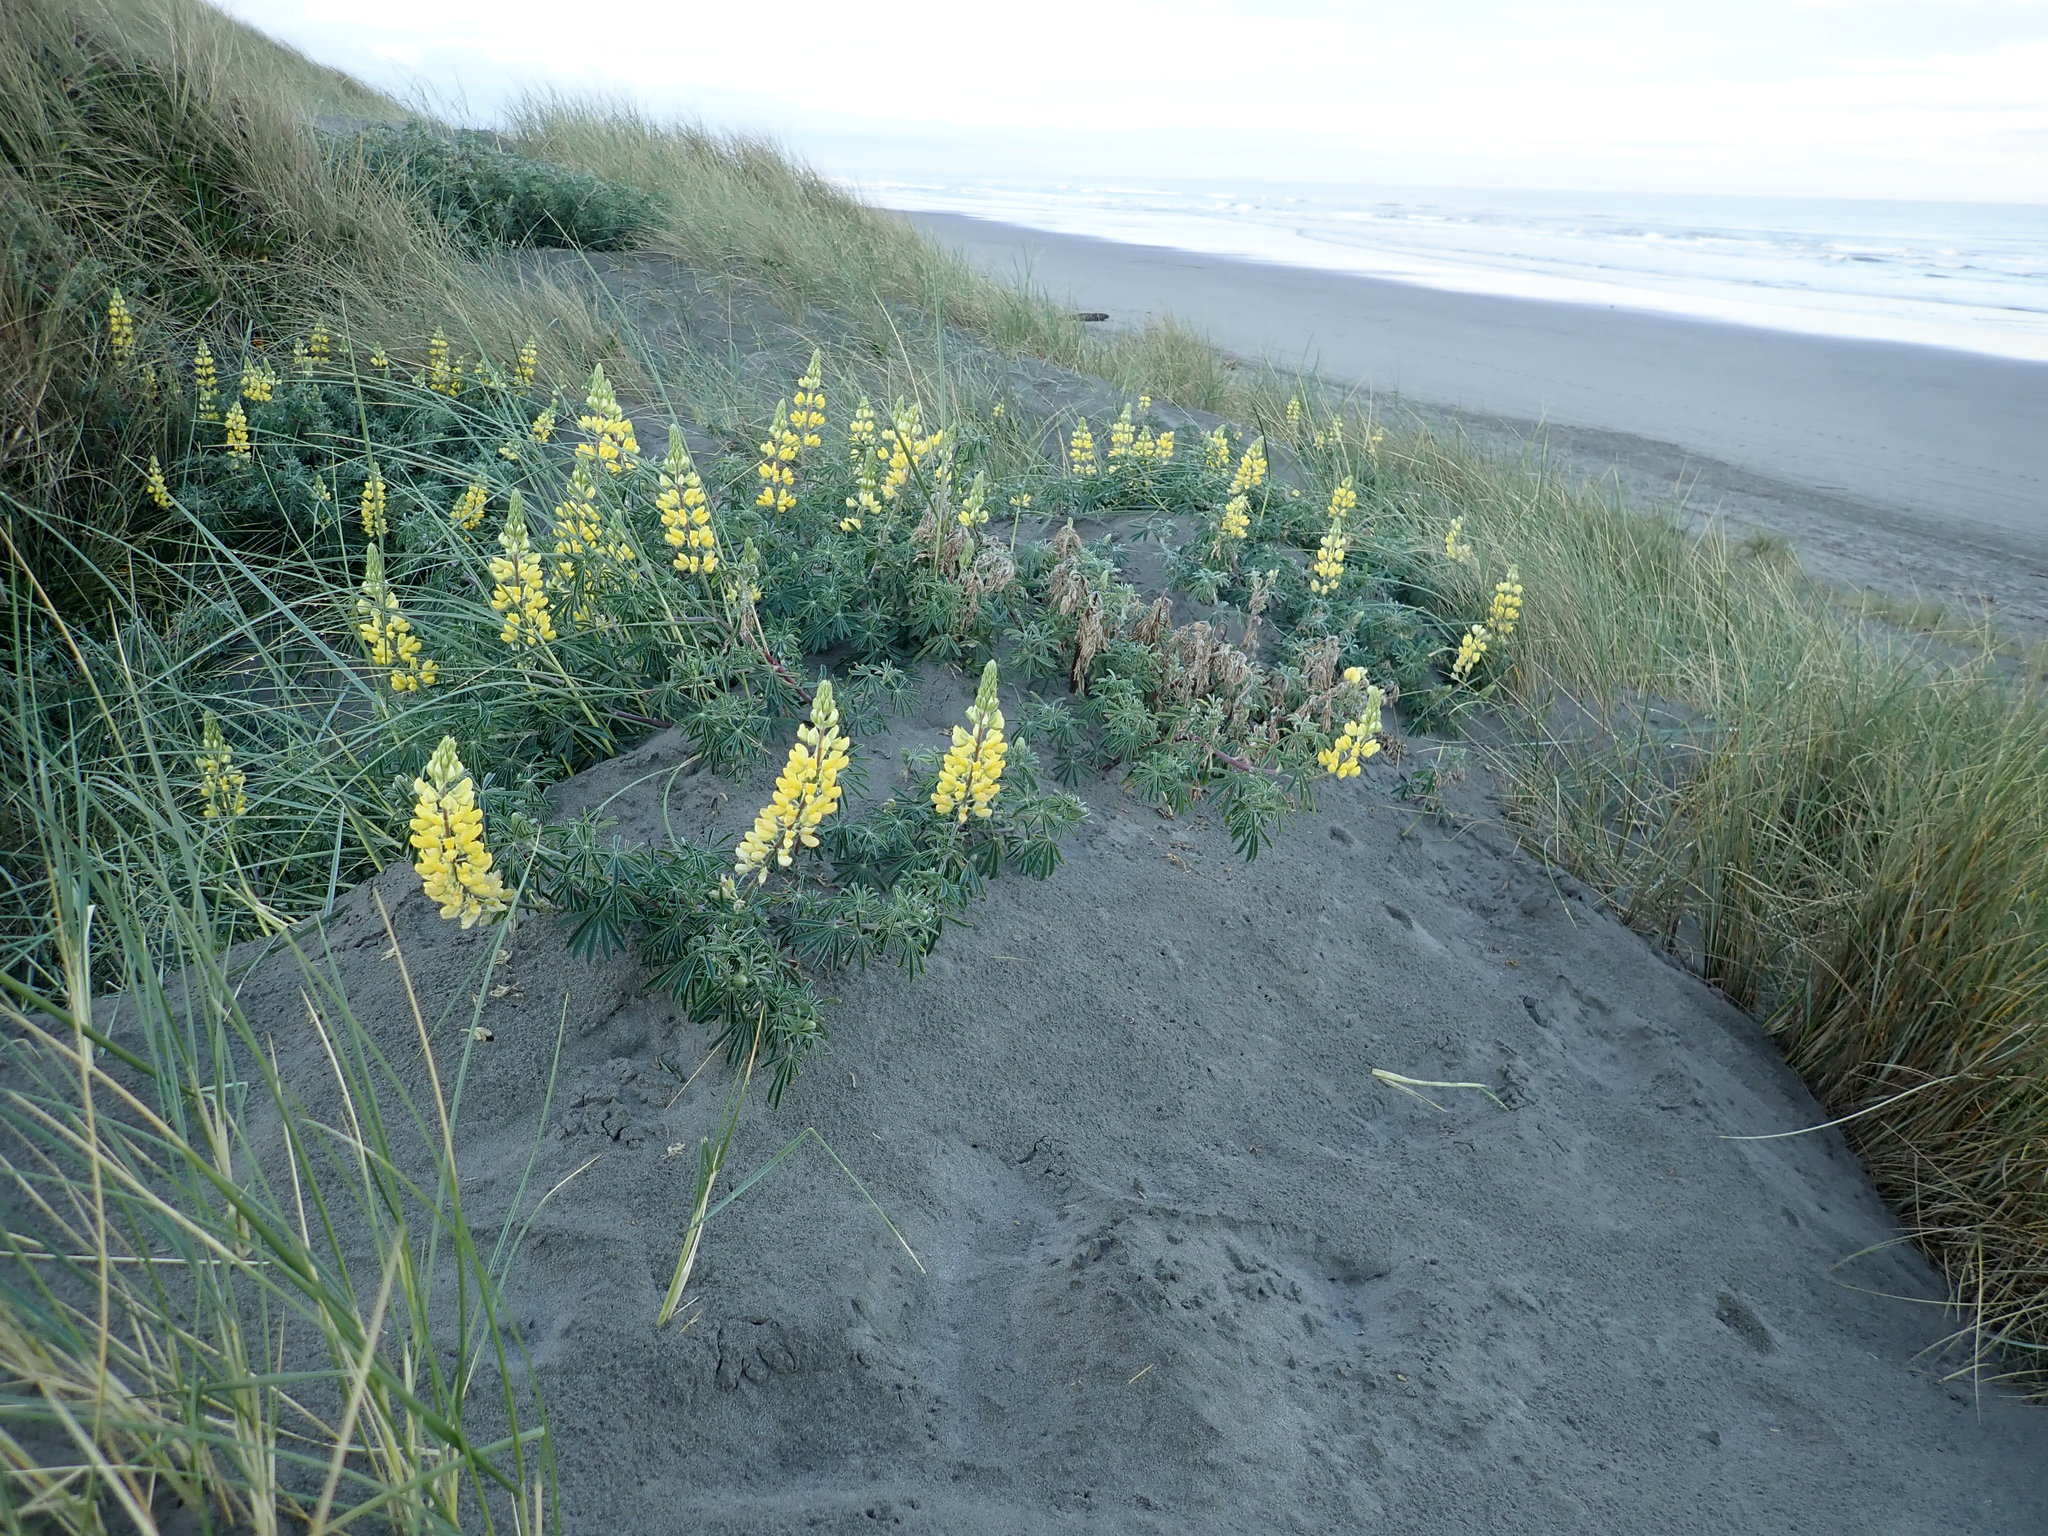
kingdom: Plantae
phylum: Tracheophyta
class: Magnoliopsida
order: Fabales
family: Fabaceae
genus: Lupinus
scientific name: Lupinus arboreus
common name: Yellow bush lupine
